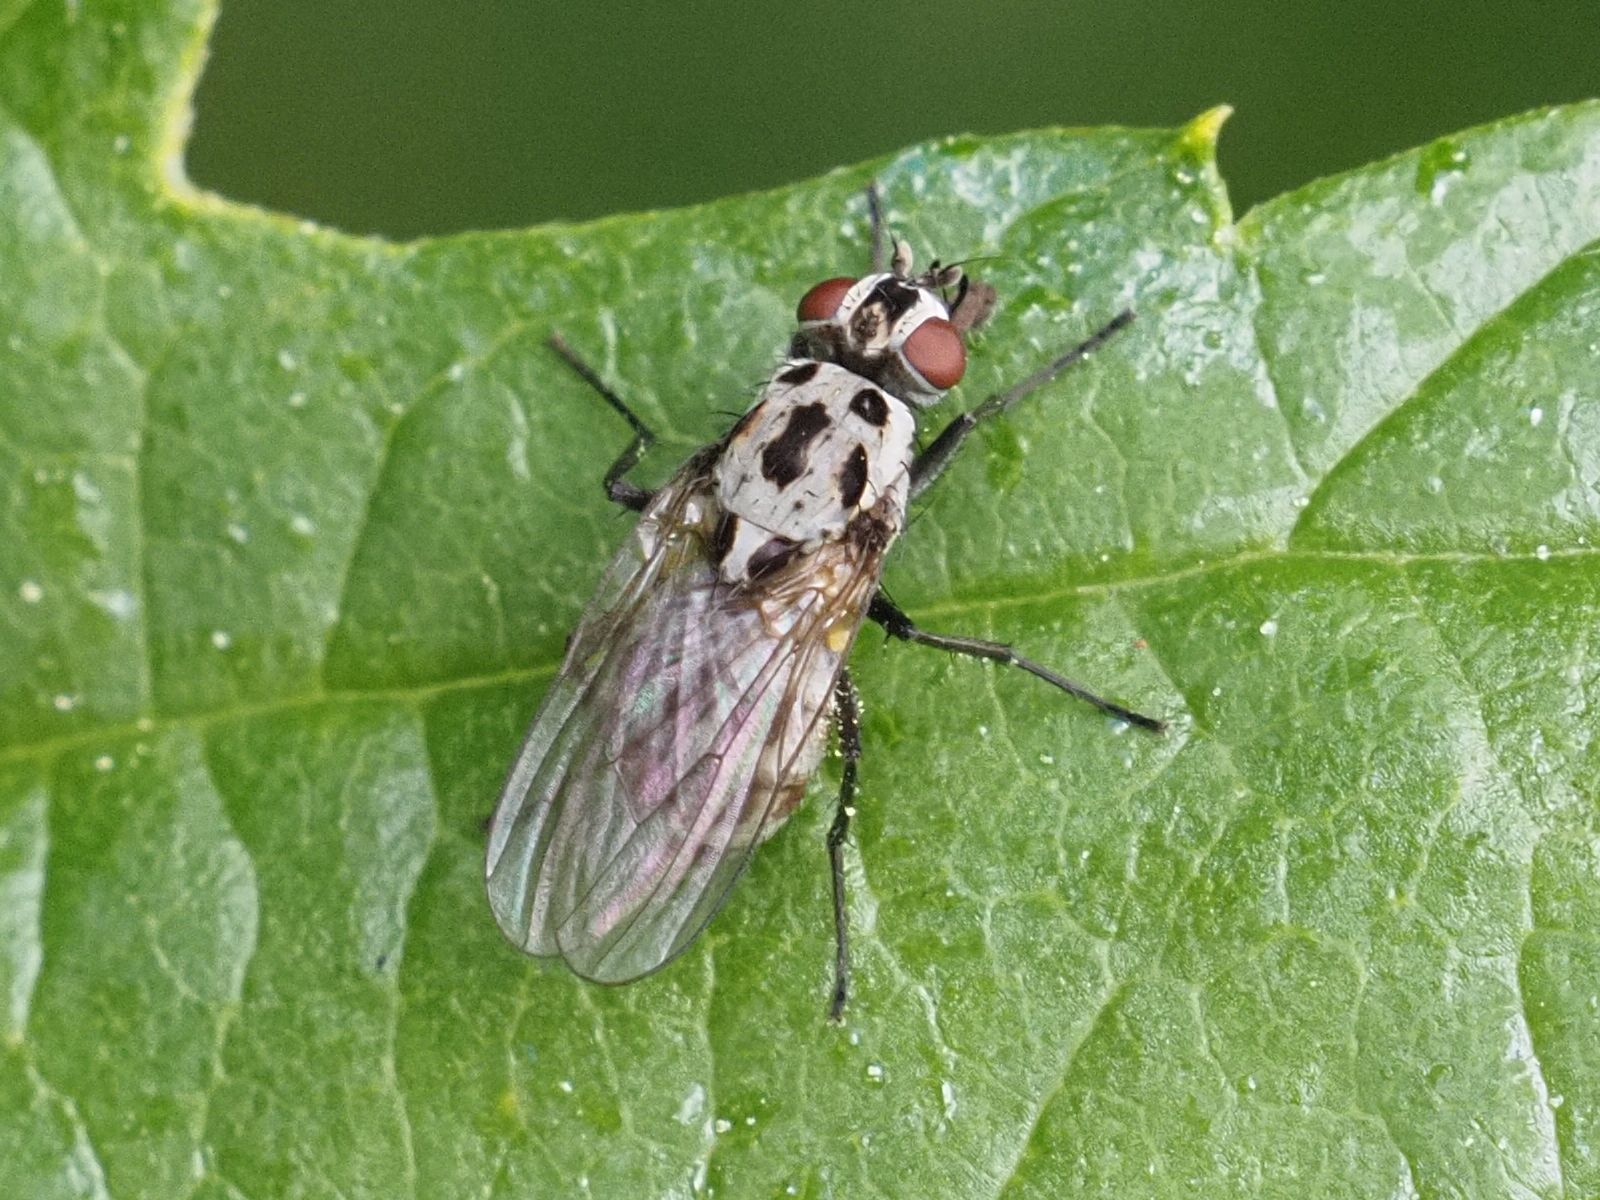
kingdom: Animalia
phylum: Arthropoda
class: Insecta
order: Diptera
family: Anthomyiidae
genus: Anthomyia
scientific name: Anthomyia pluvialis
